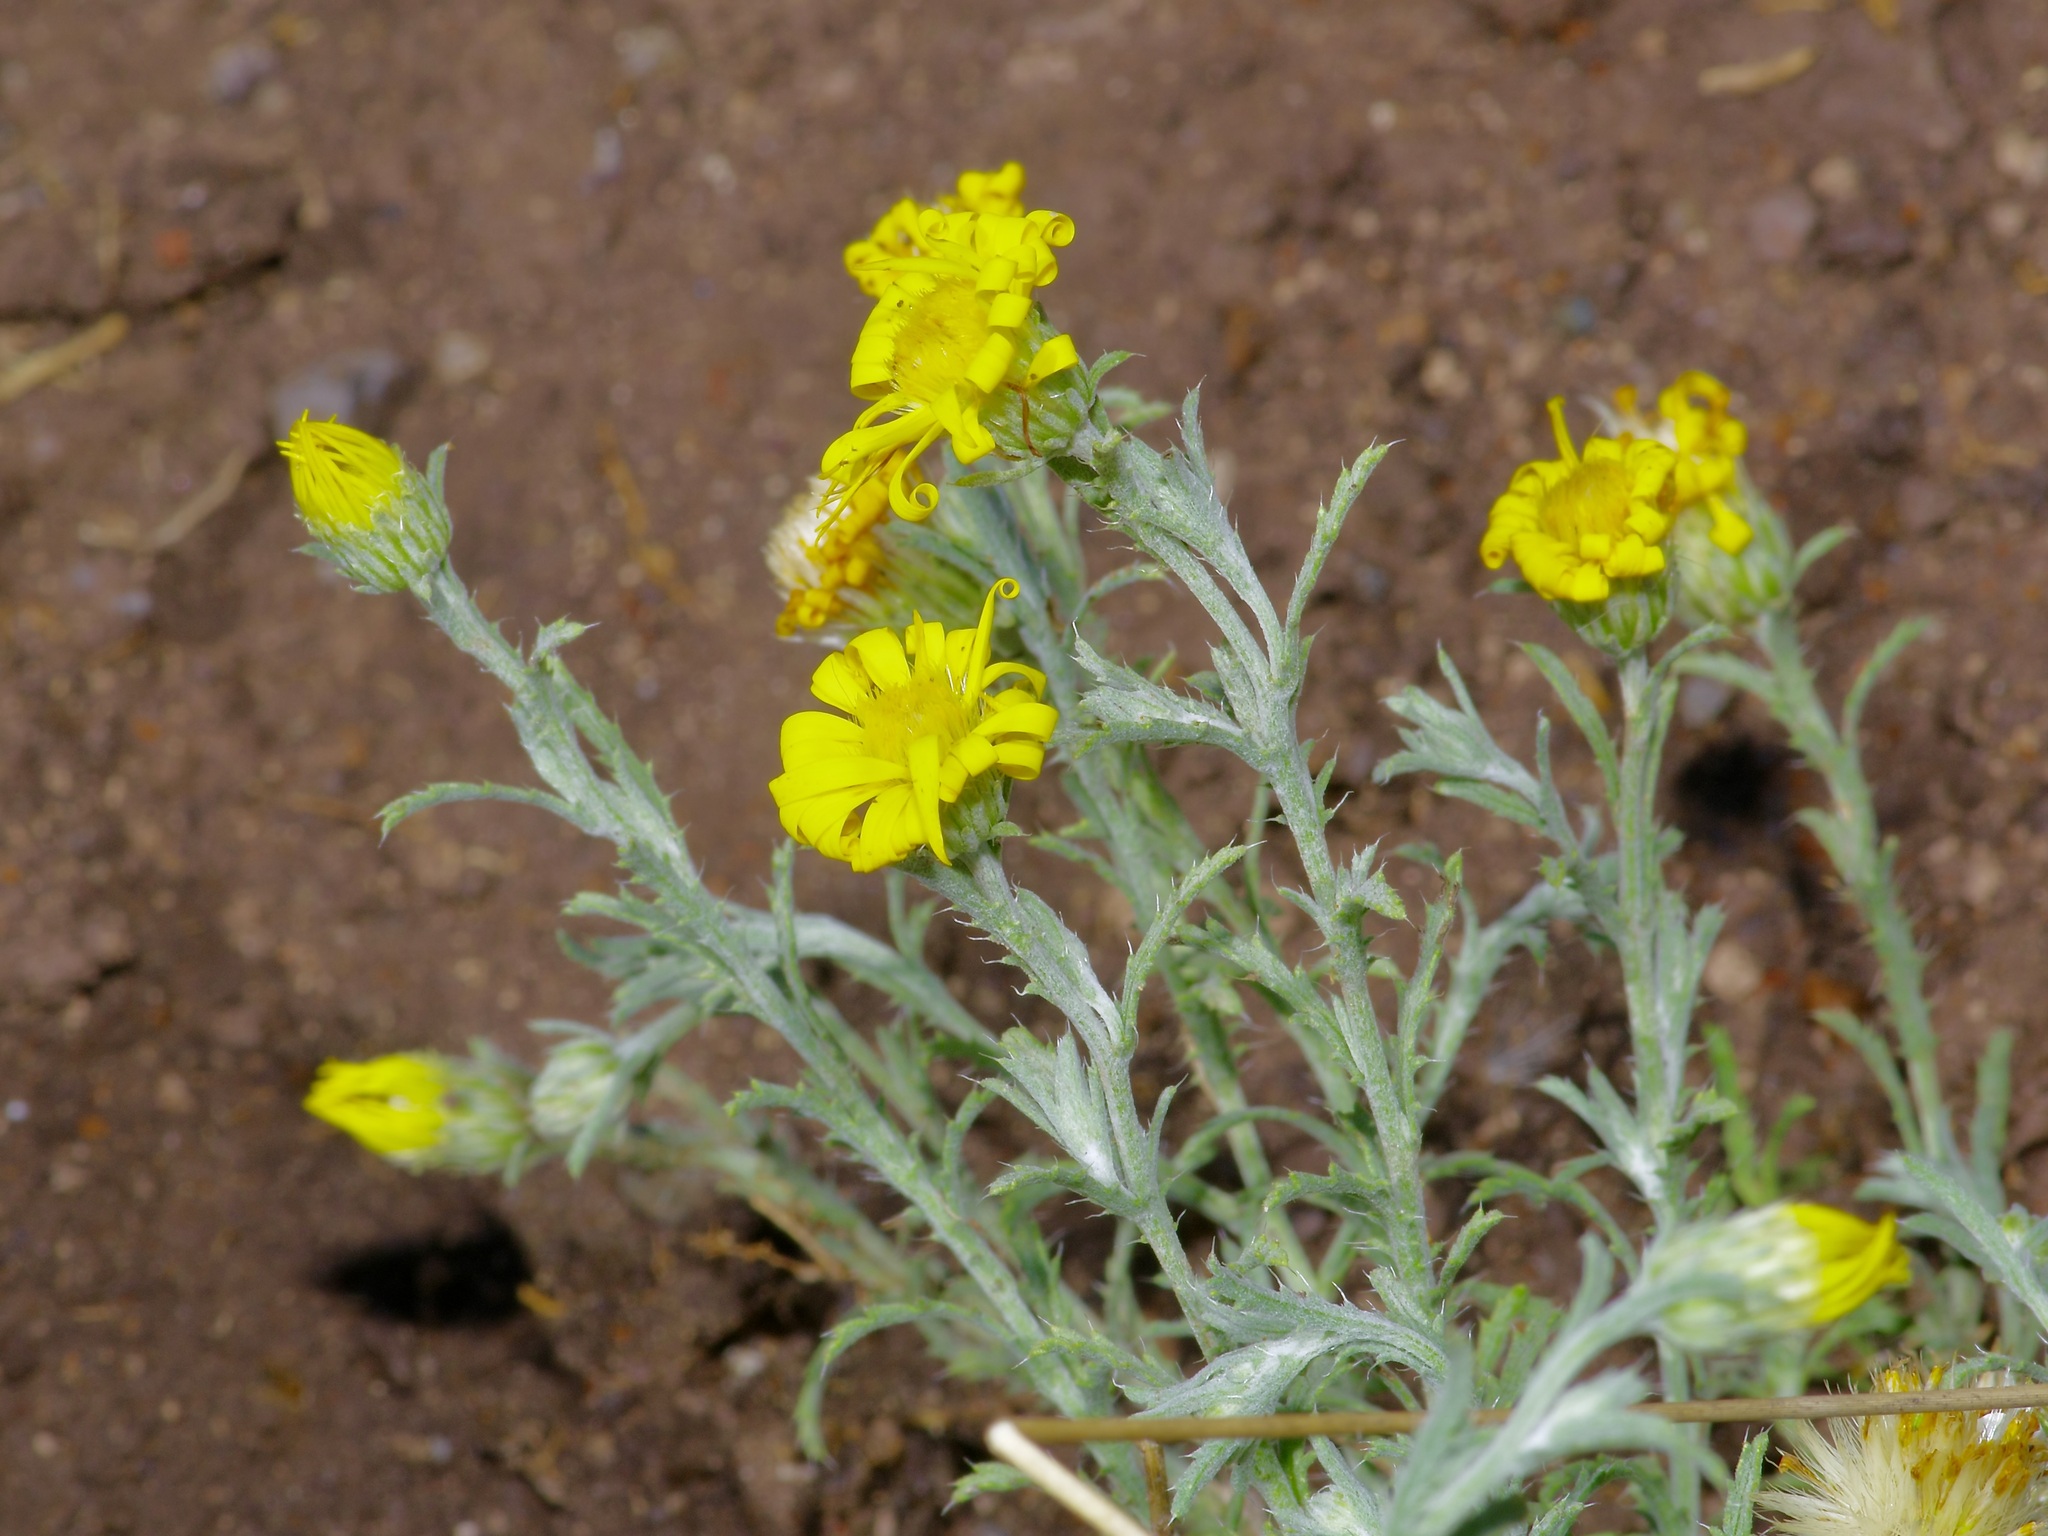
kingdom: Plantae
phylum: Tracheophyta
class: Magnoliopsida
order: Asterales
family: Asteraceae
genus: Xanthisma
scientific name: Xanthisma spinulosum
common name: Spiny goldenweed
